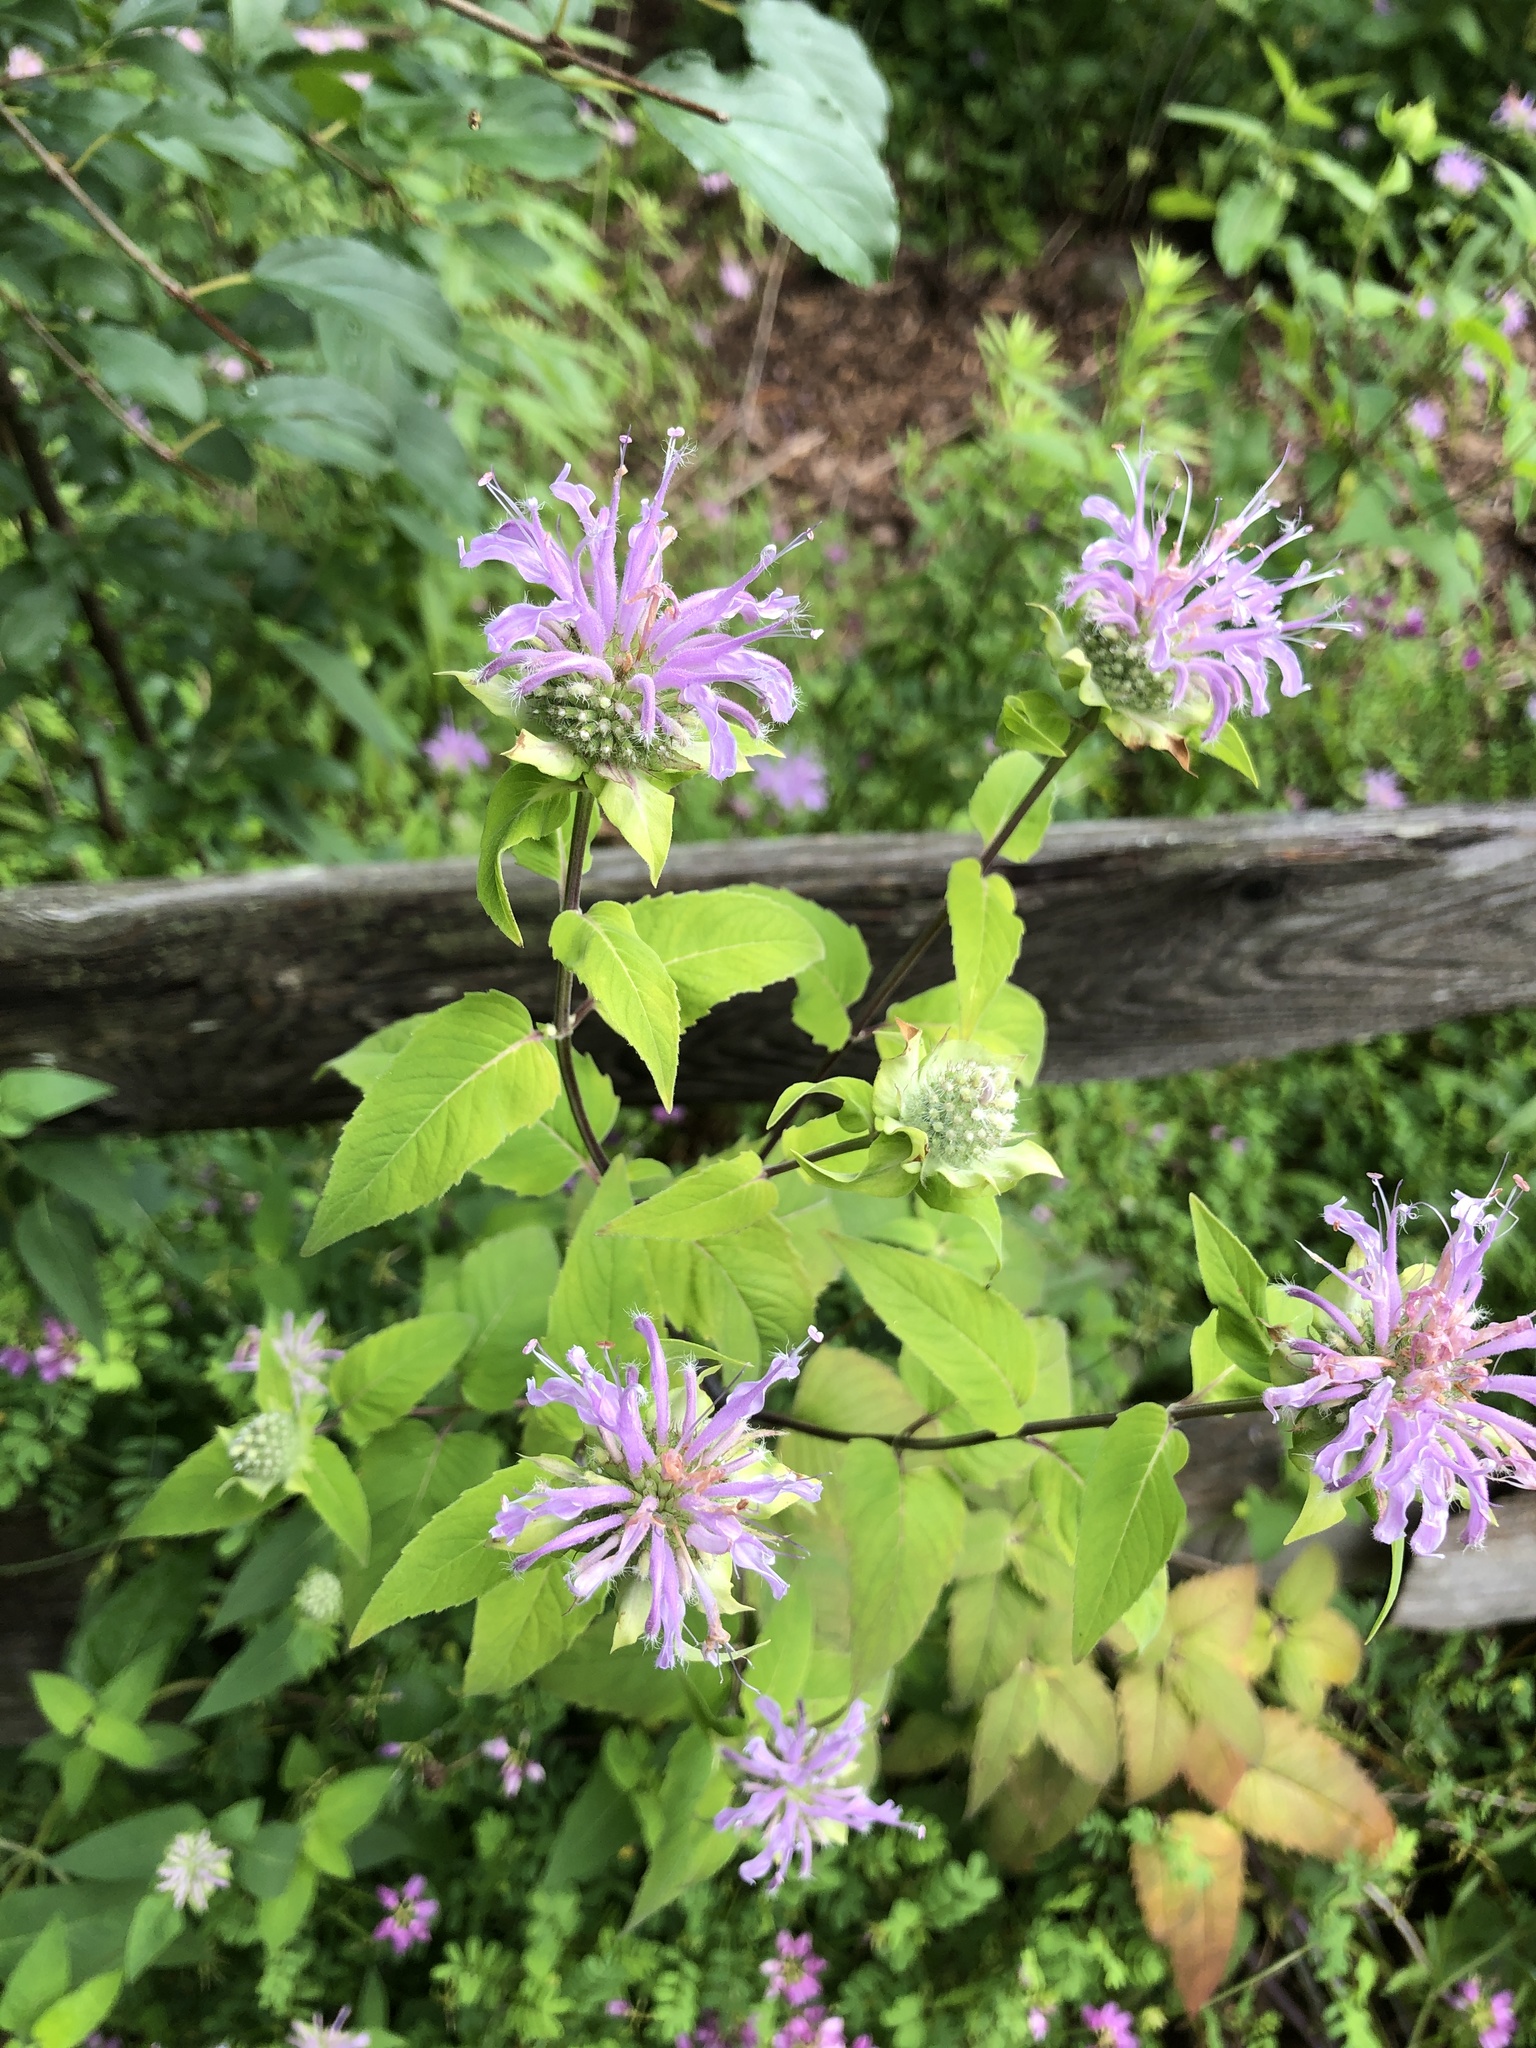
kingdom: Plantae
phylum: Tracheophyta
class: Magnoliopsida
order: Lamiales
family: Lamiaceae
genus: Monarda
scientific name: Monarda fistulosa
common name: Purple beebalm
